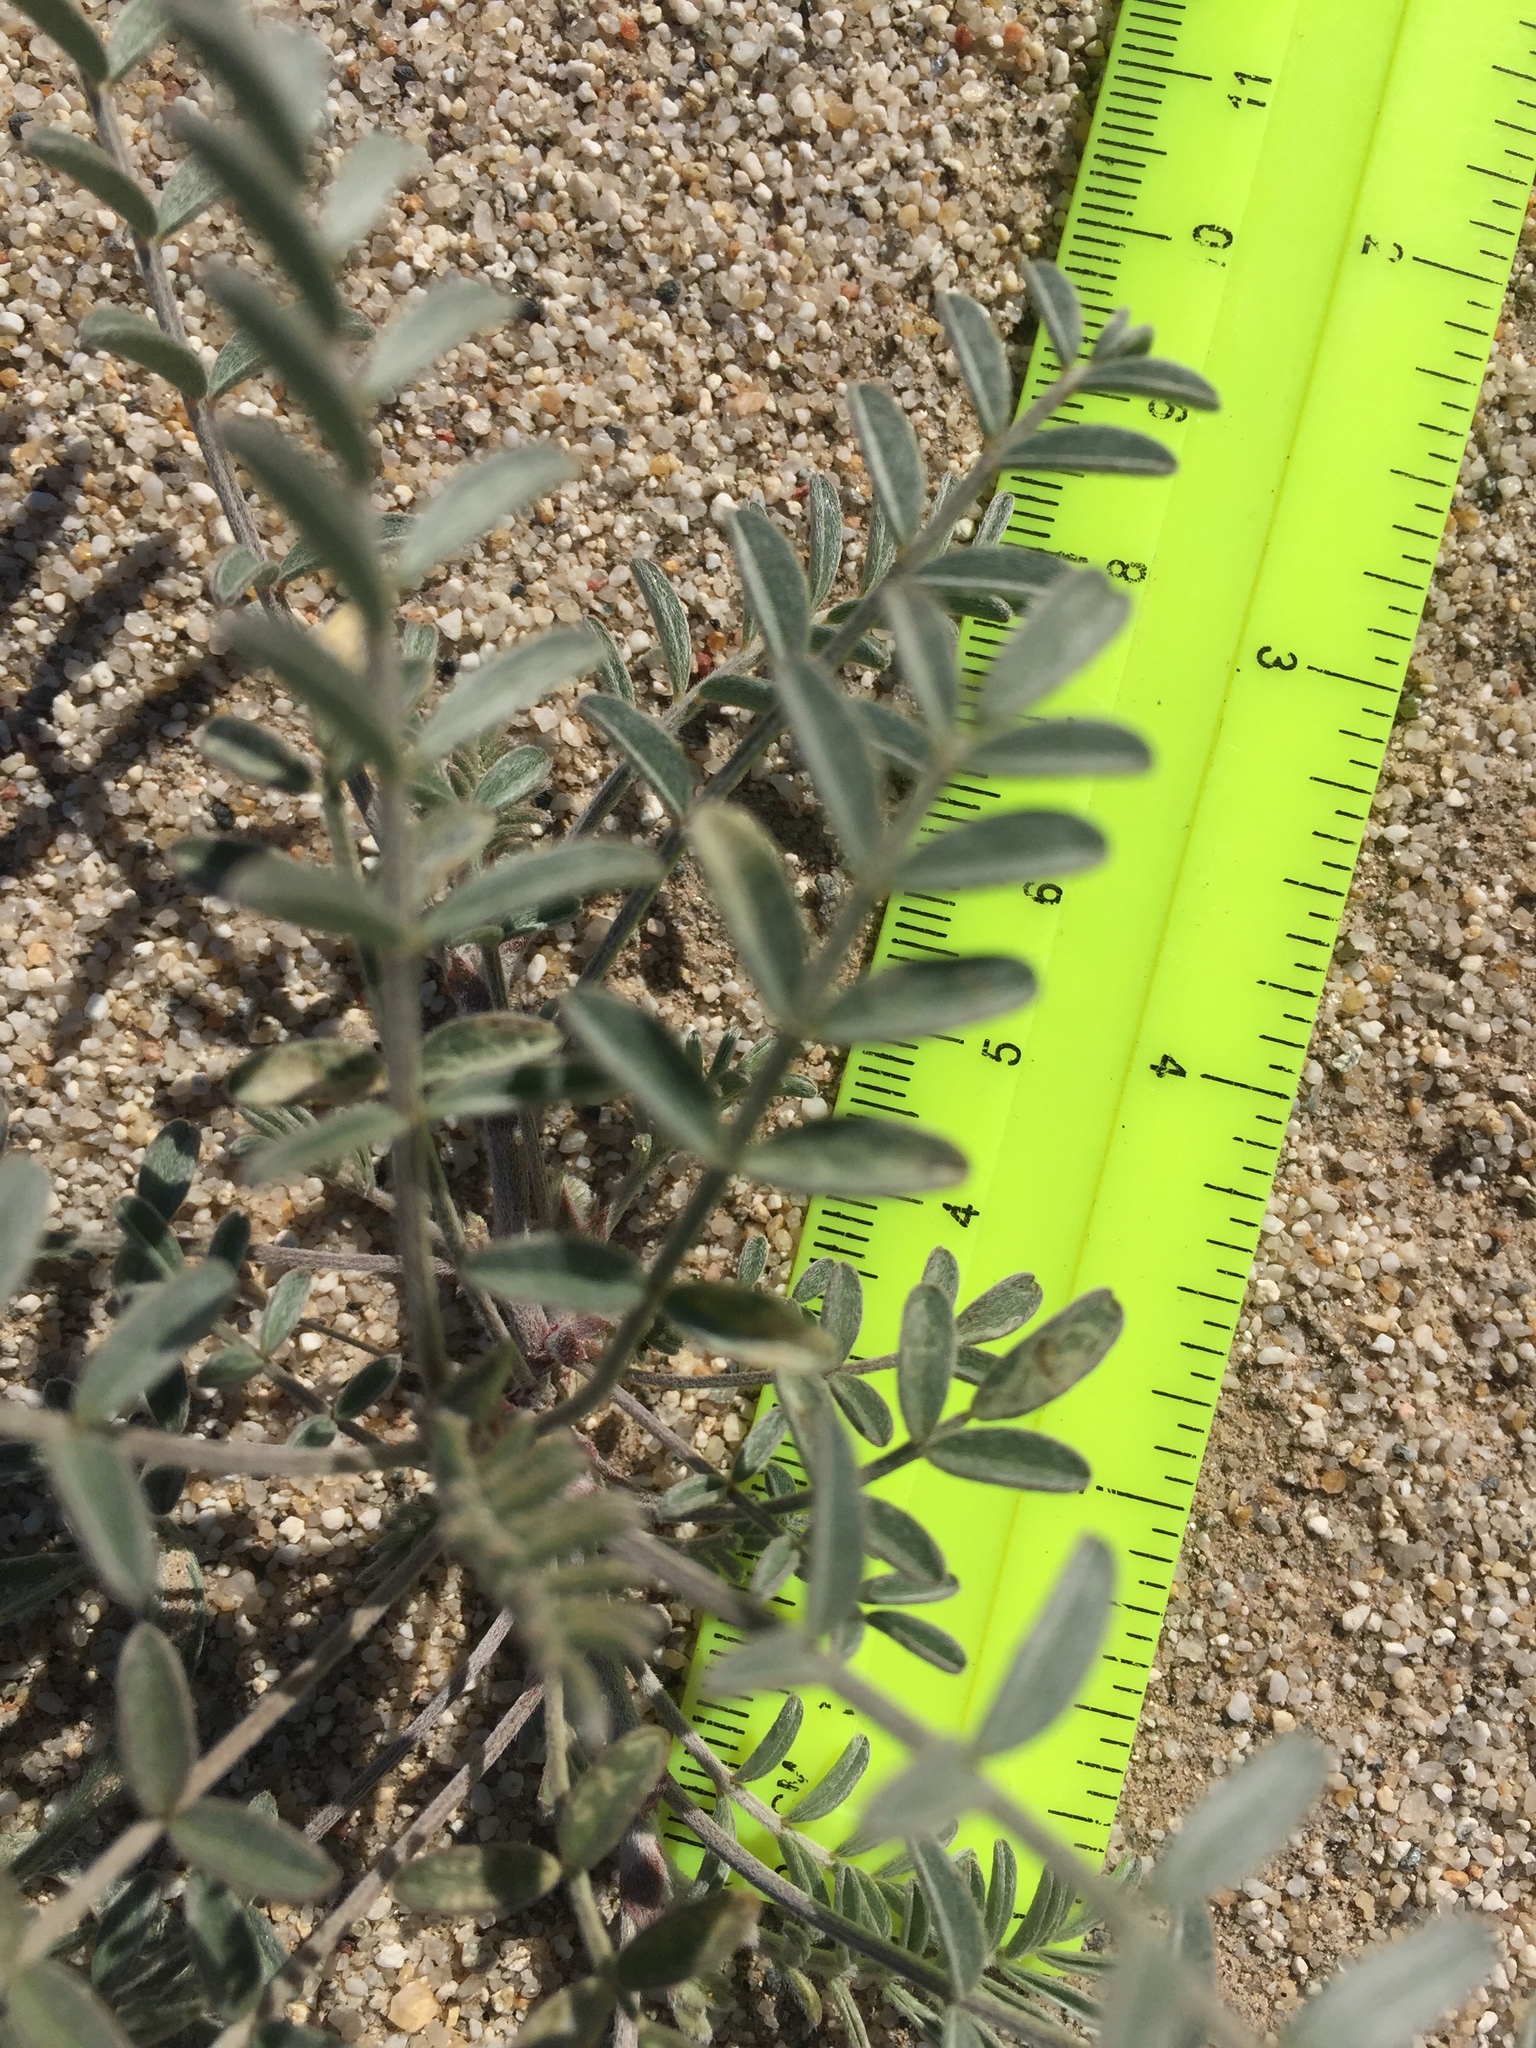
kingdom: Plantae
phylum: Tracheophyta
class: Magnoliopsida
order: Fabales
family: Fabaceae
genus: Astragalus
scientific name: Astragalus aridus
